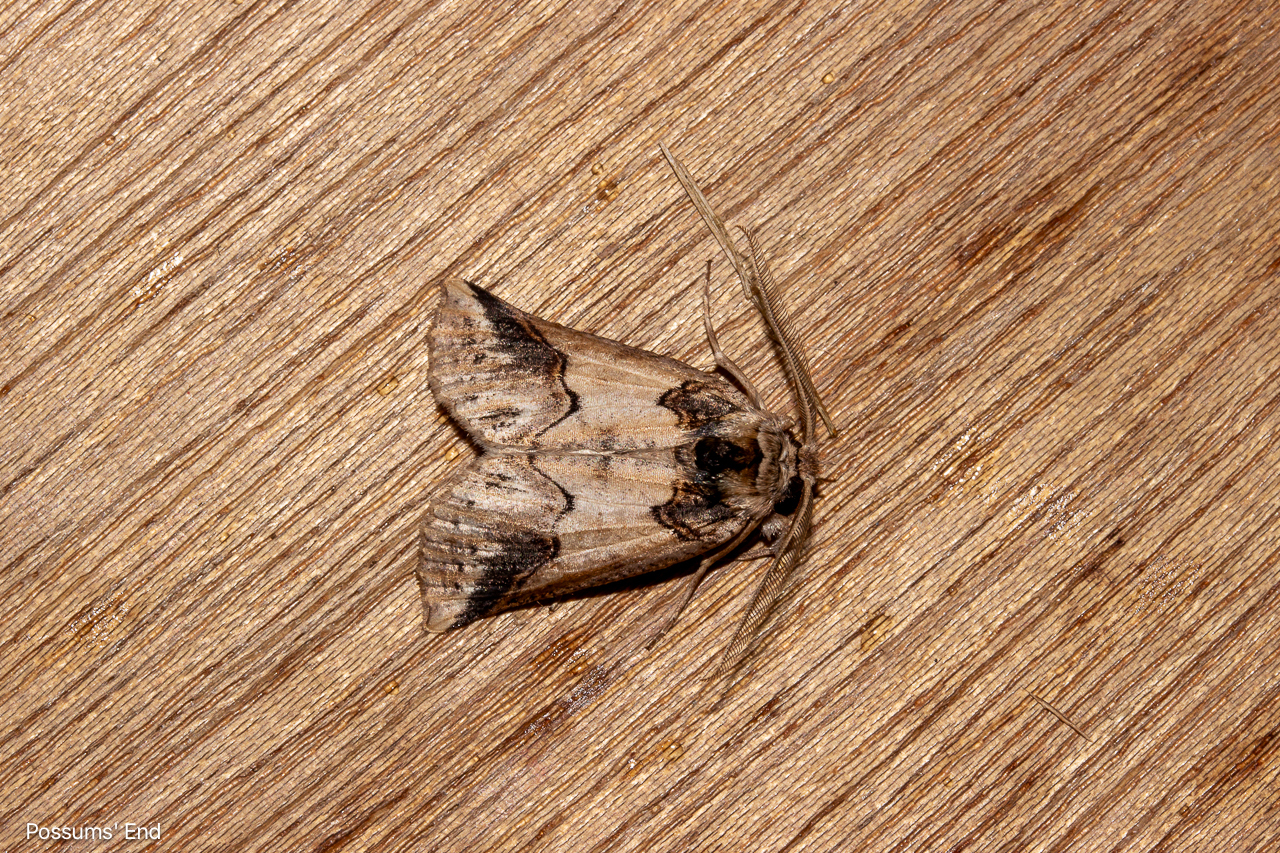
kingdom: Animalia
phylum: Arthropoda
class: Insecta
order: Lepidoptera
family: Geometridae
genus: Declana
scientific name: Declana
